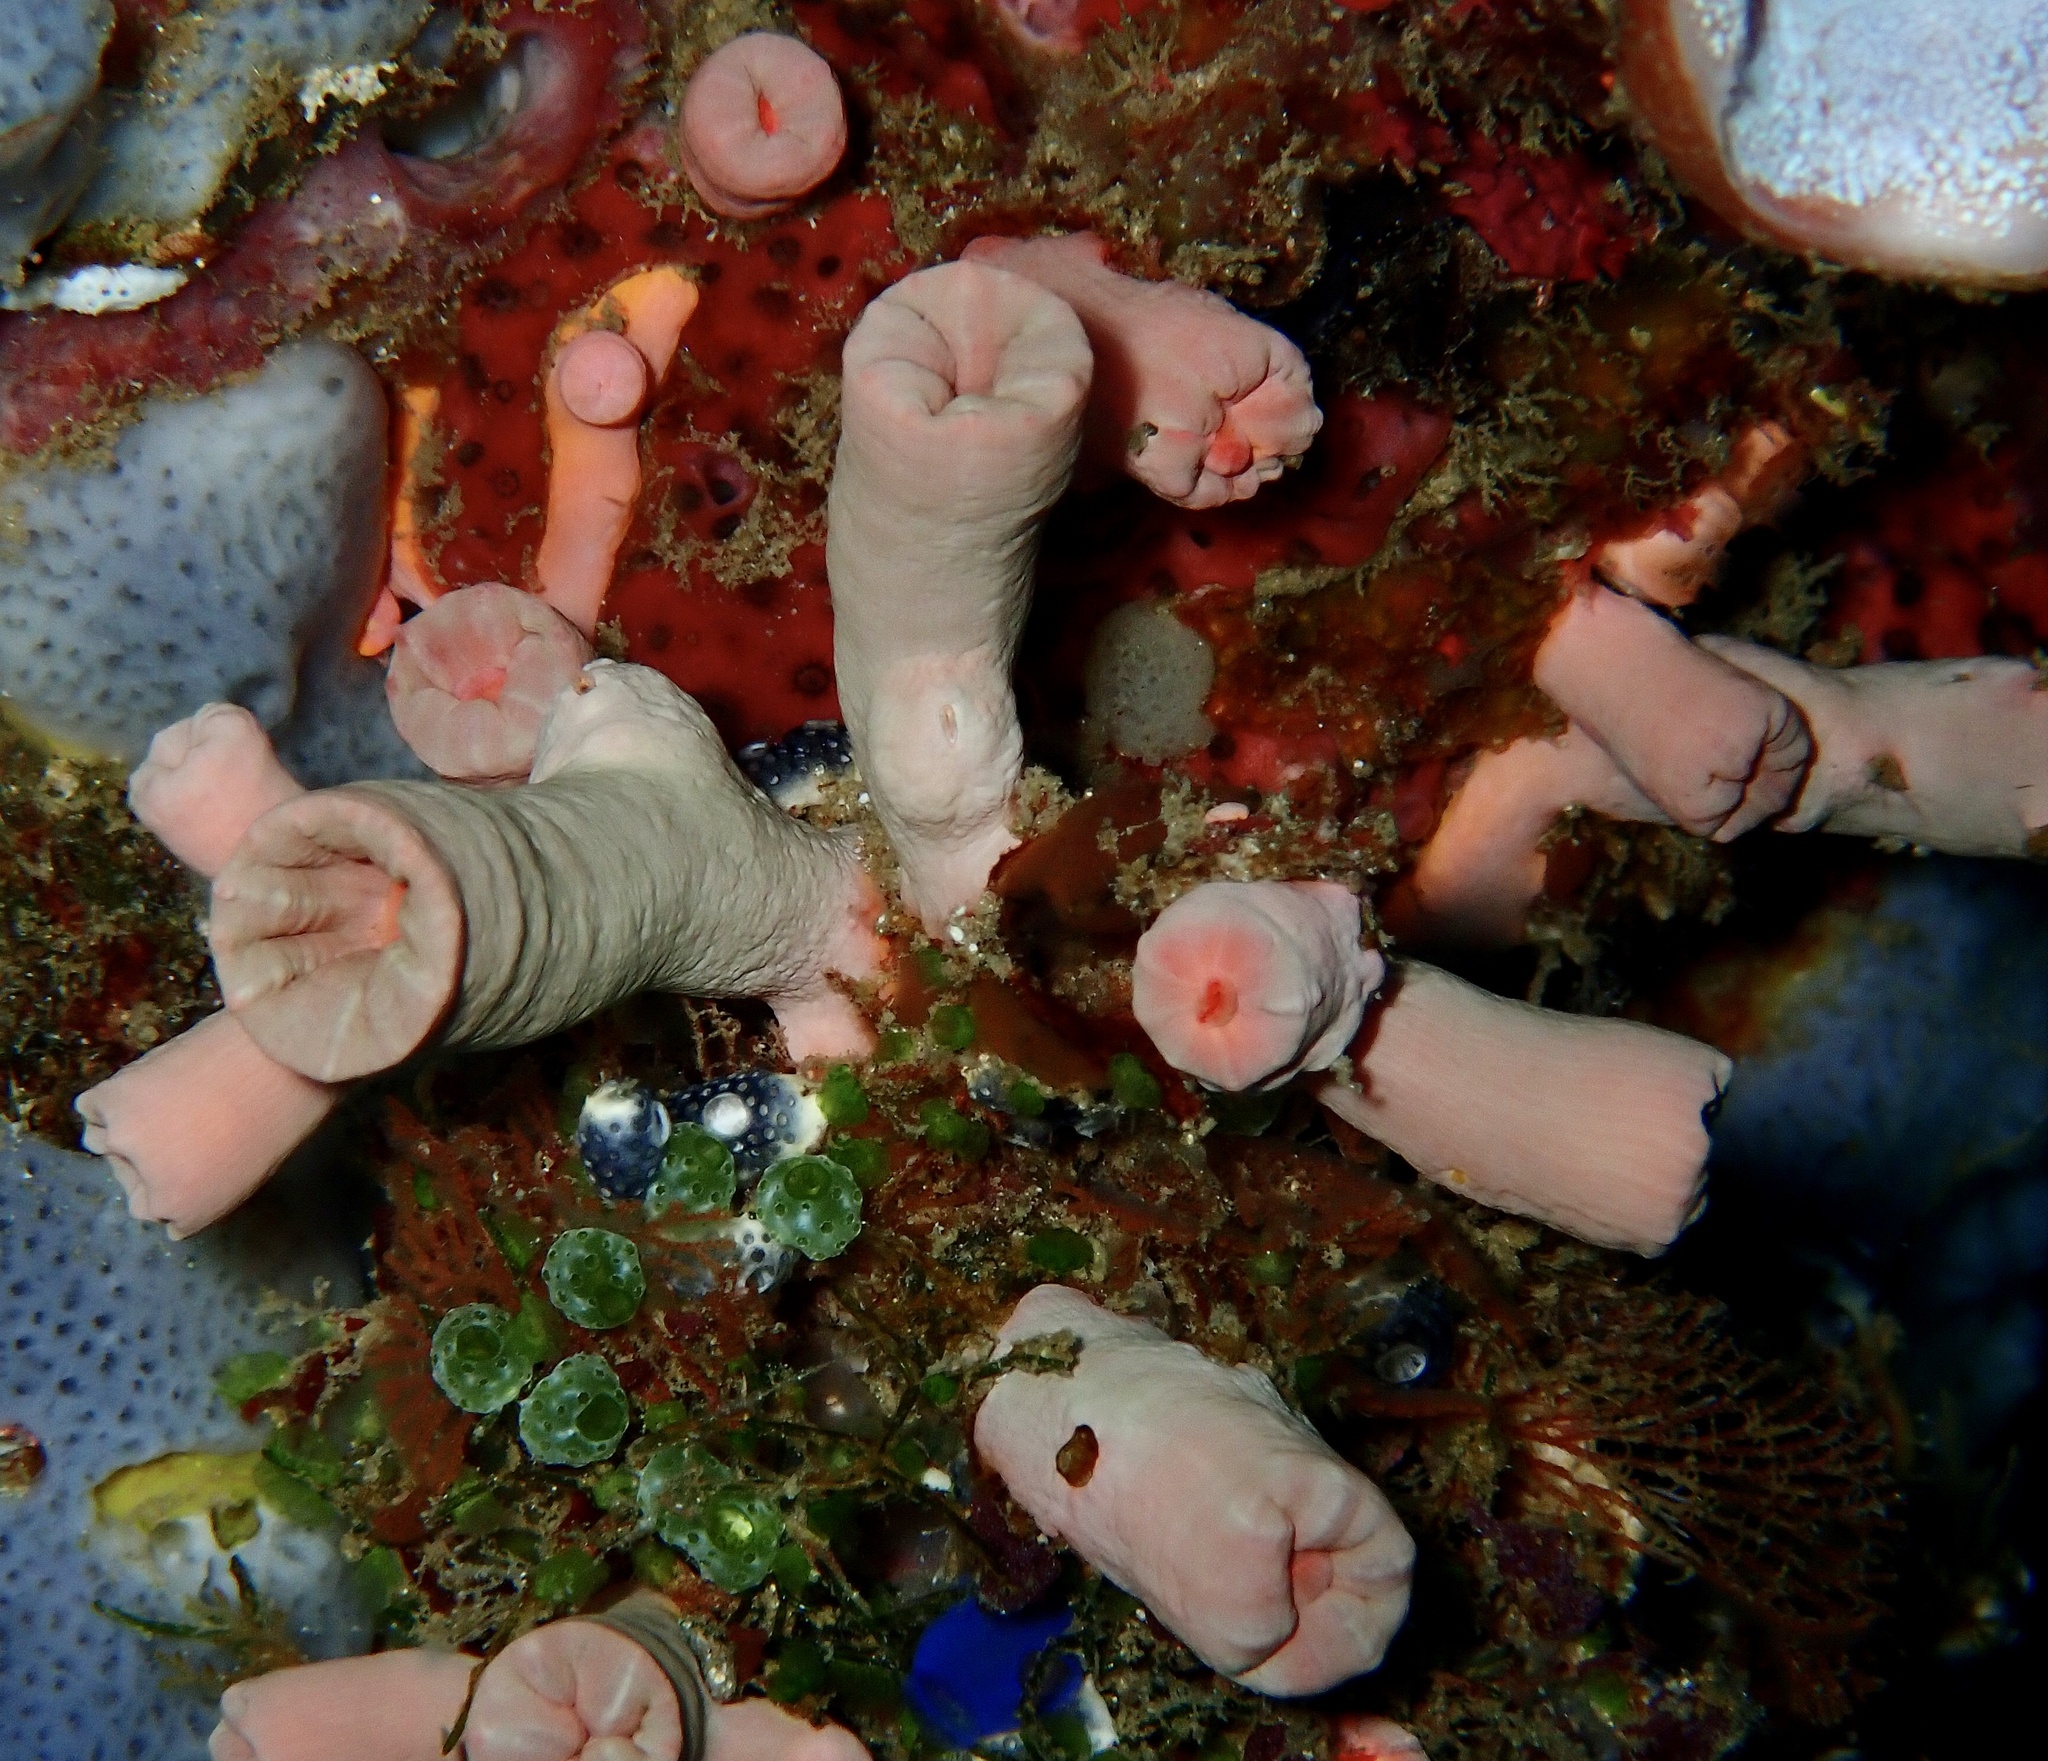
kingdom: Animalia
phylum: Cnidaria
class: Anthozoa
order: Scleractinia
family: Dendrophylliidae
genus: Cladopsammia
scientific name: Cladopsammia gracilis
